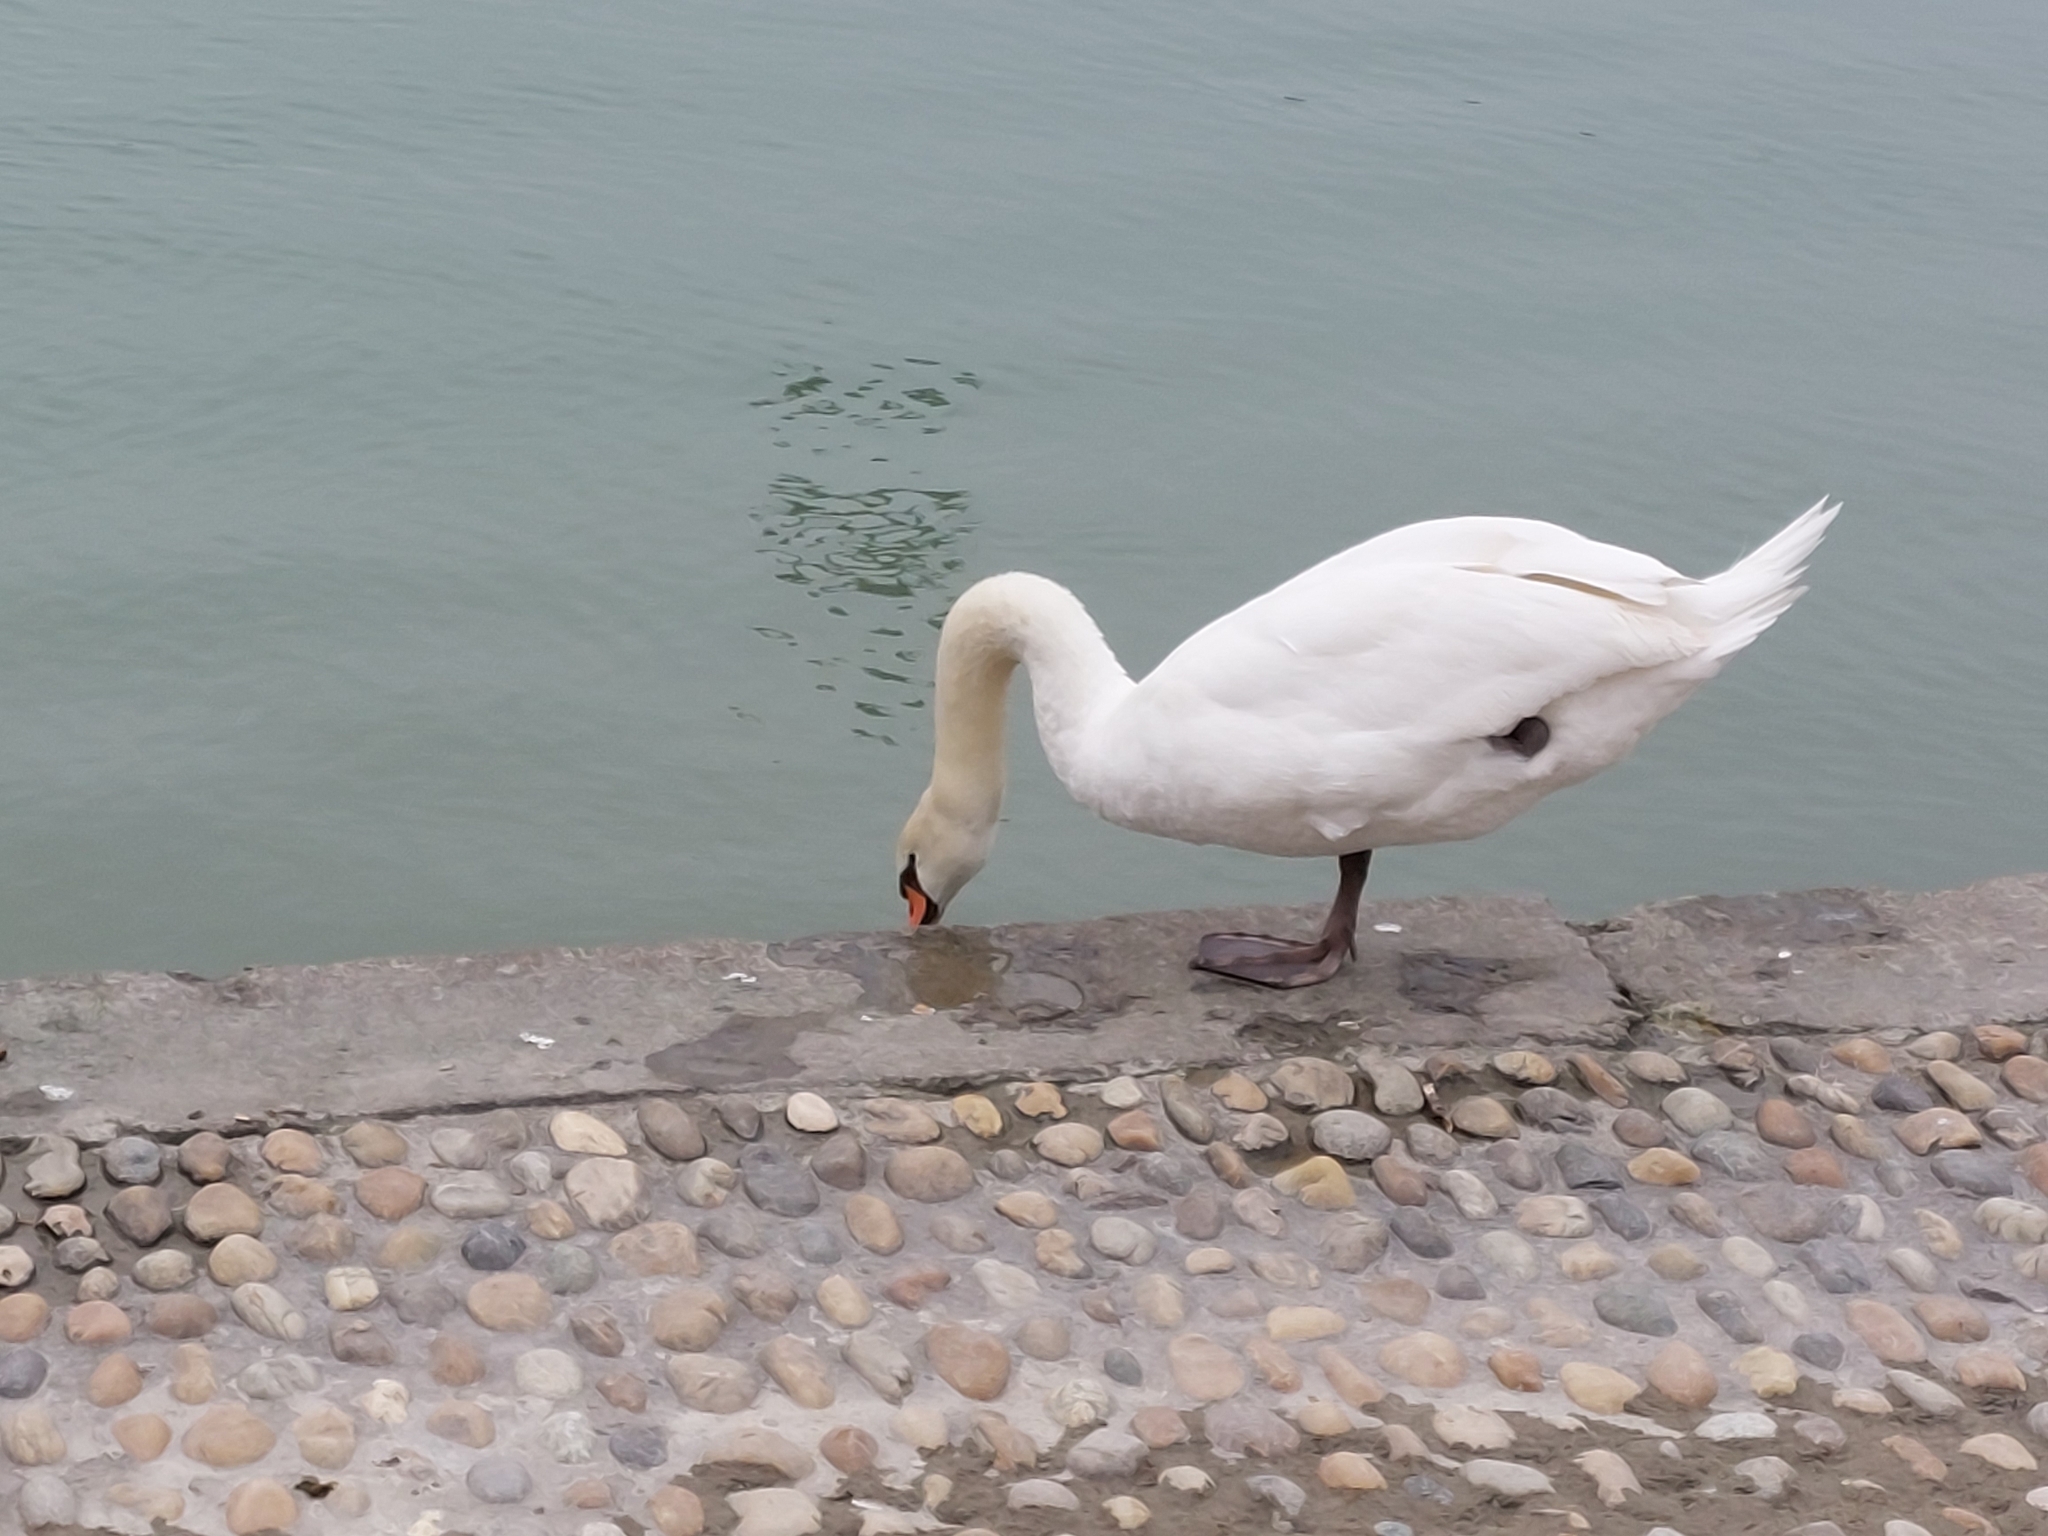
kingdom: Animalia
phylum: Chordata
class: Aves
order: Anseriformes
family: Anatidae
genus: Cygnus
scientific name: Cygnus olor
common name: Mute swan
